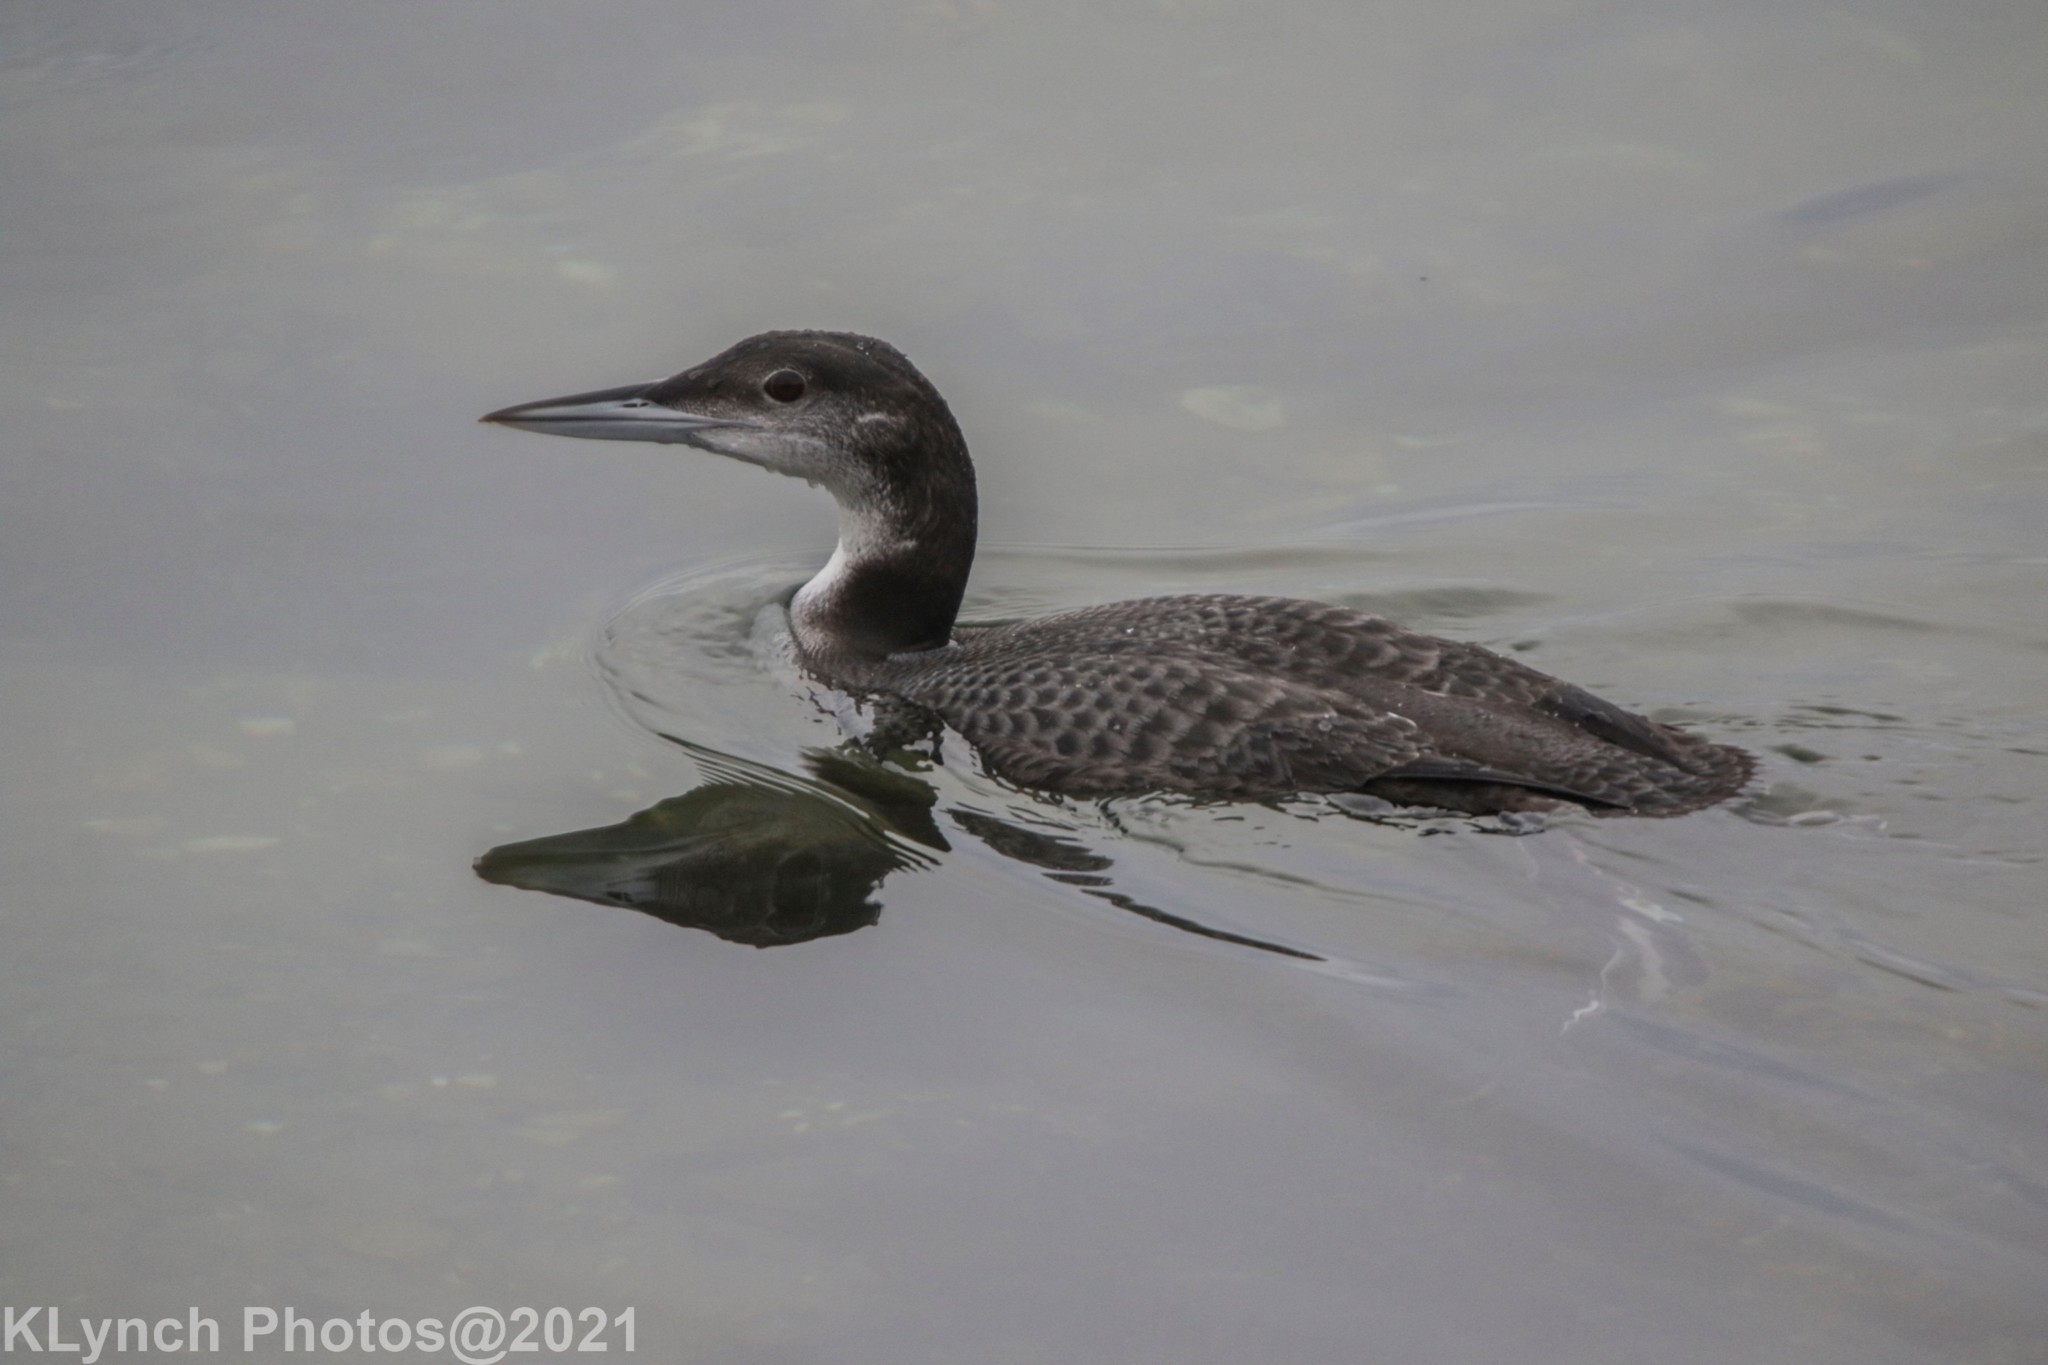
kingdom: Animalia
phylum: Chordata
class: Aves
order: Gaviiformes
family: Gaviidae
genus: Gavia
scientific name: Gavia immer
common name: Common loon
